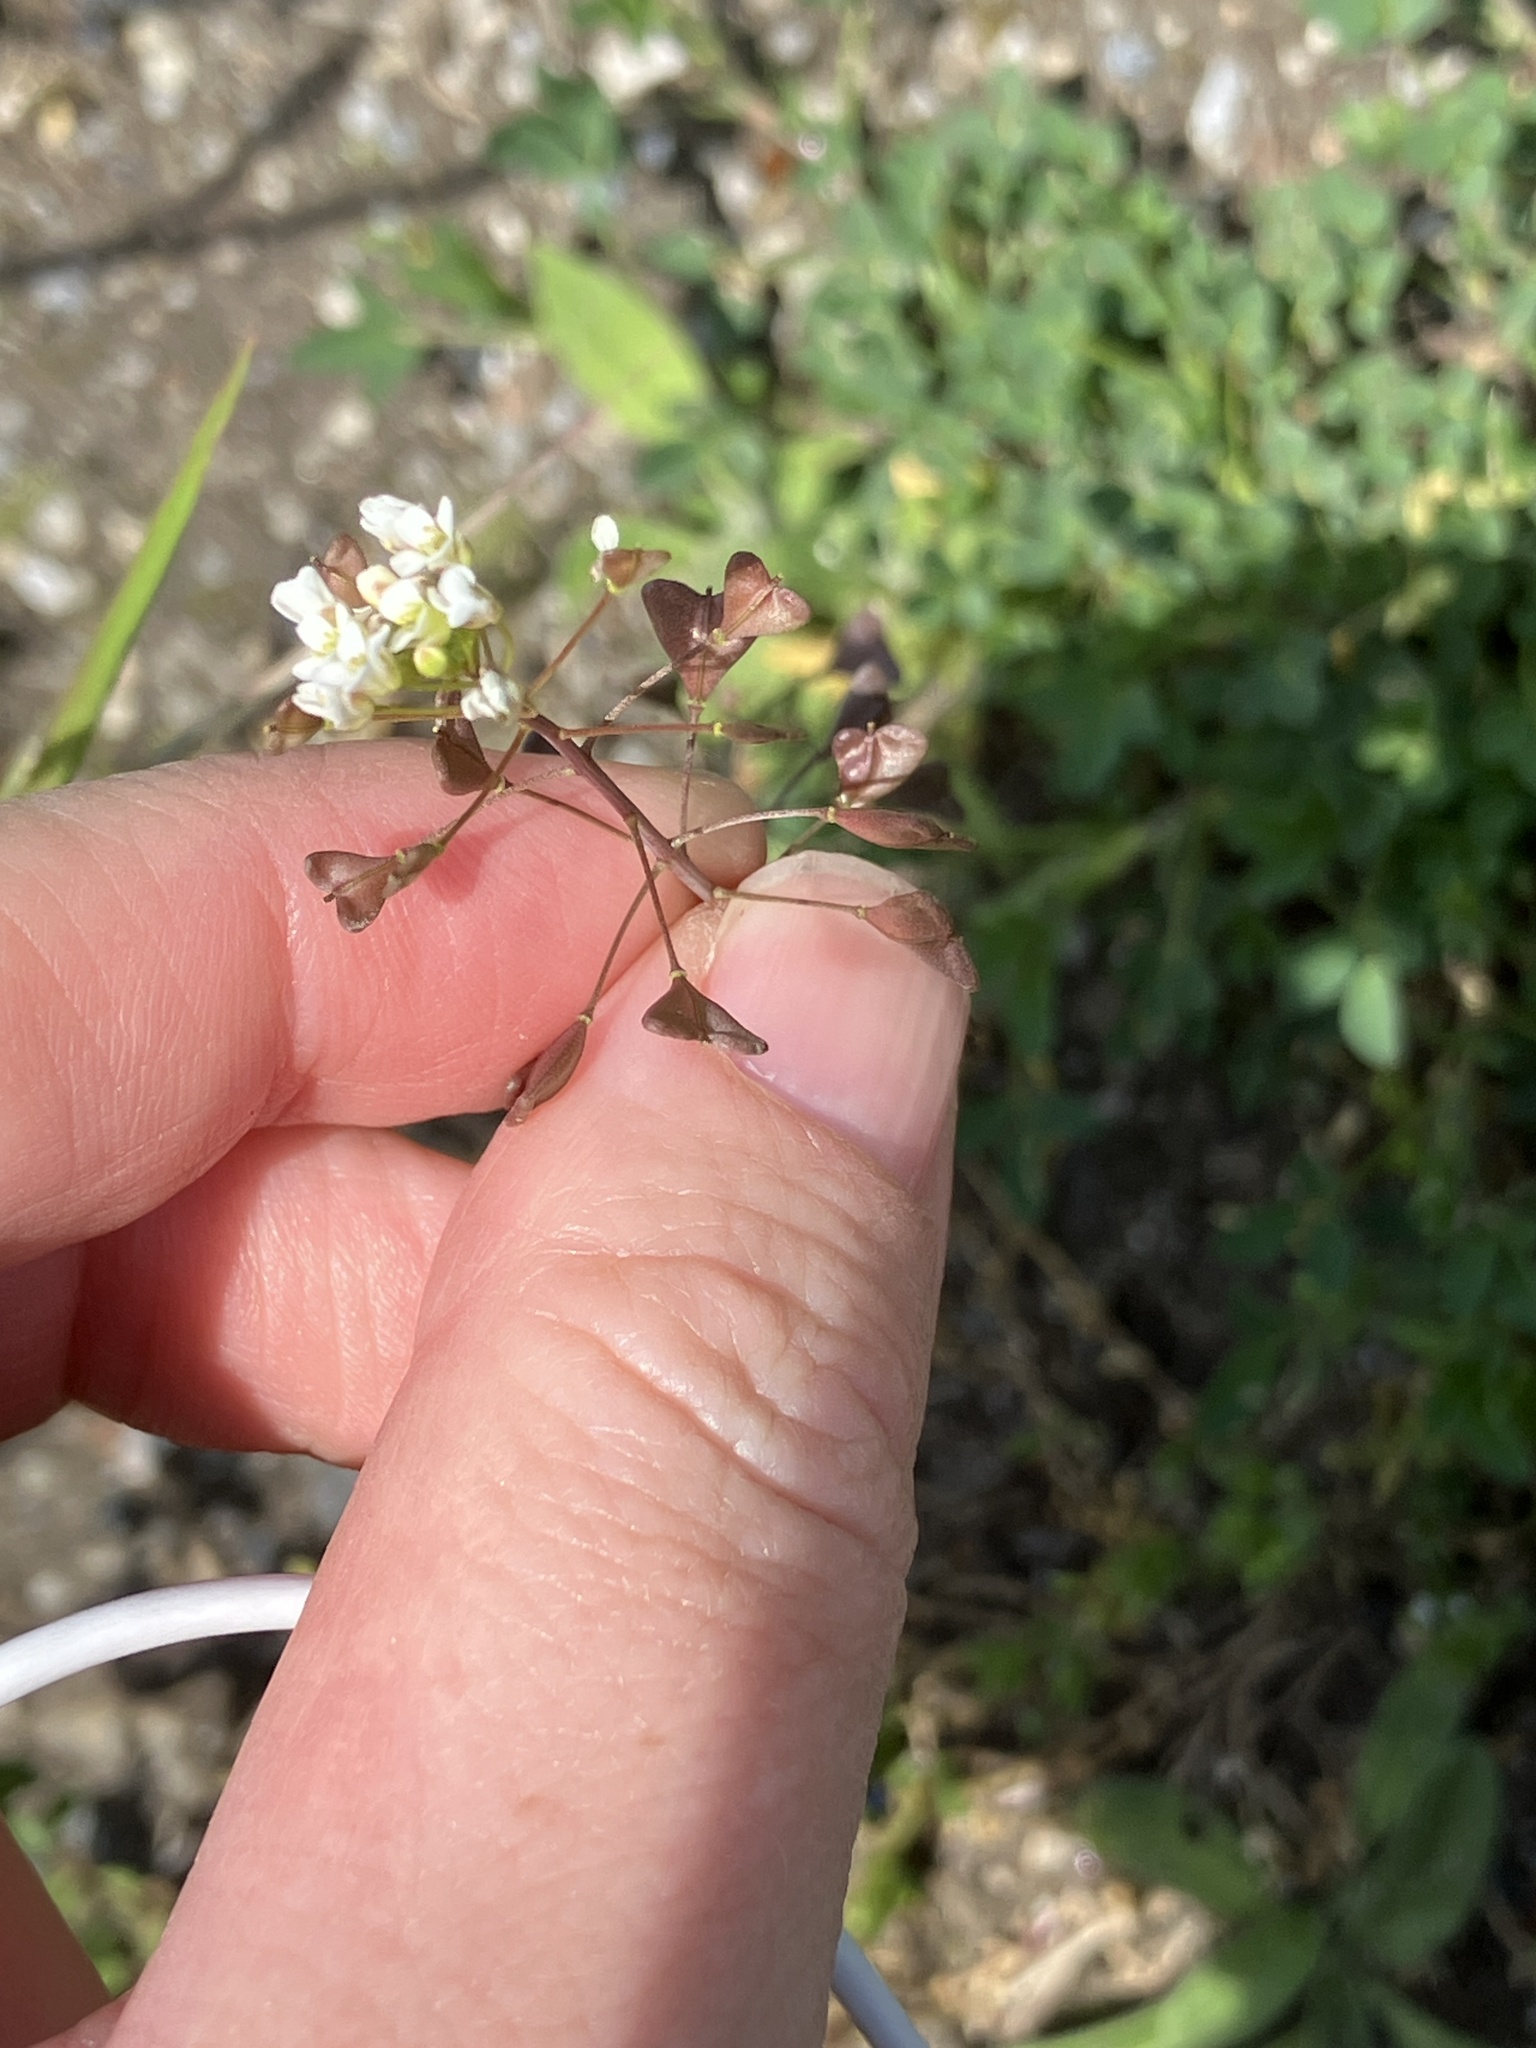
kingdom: Plantae
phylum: Tracheophyta
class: Magnoliopsida
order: Brassicales
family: Brassicaceae
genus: Capsella
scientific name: Capsella bursa-pastoris
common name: Shepherd's purse
